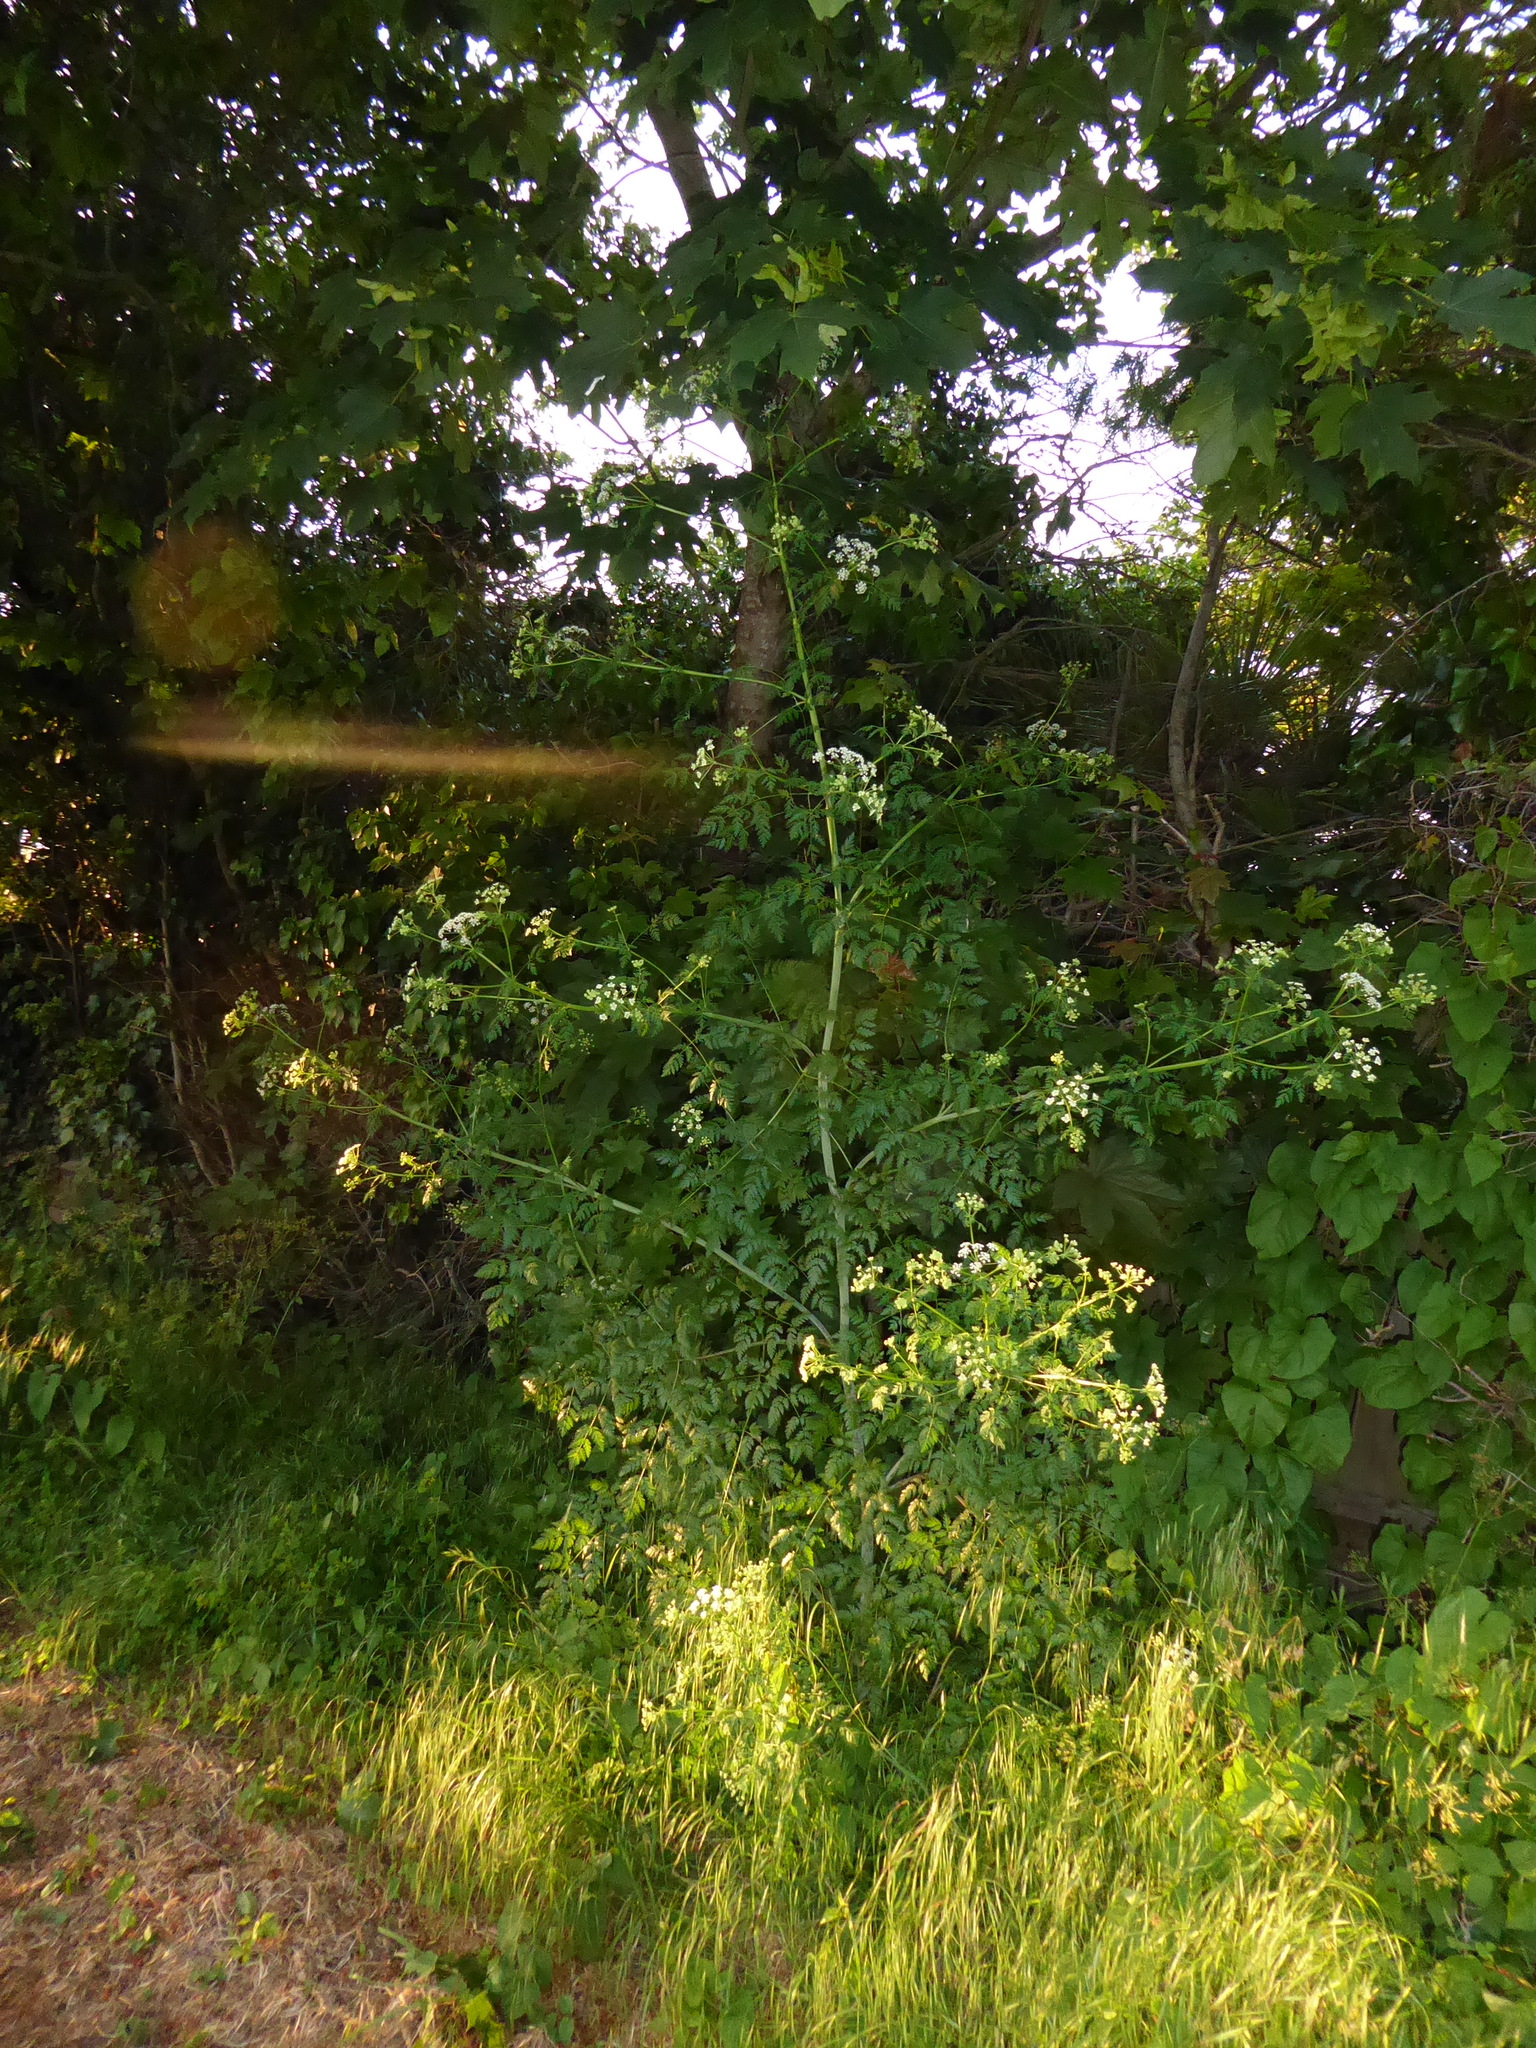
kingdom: Plantae
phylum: Tracheophyta
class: Magnoliopsida
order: Apiales
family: Apiaceae
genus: Conium
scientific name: Conium maculatum
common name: Hemlock
